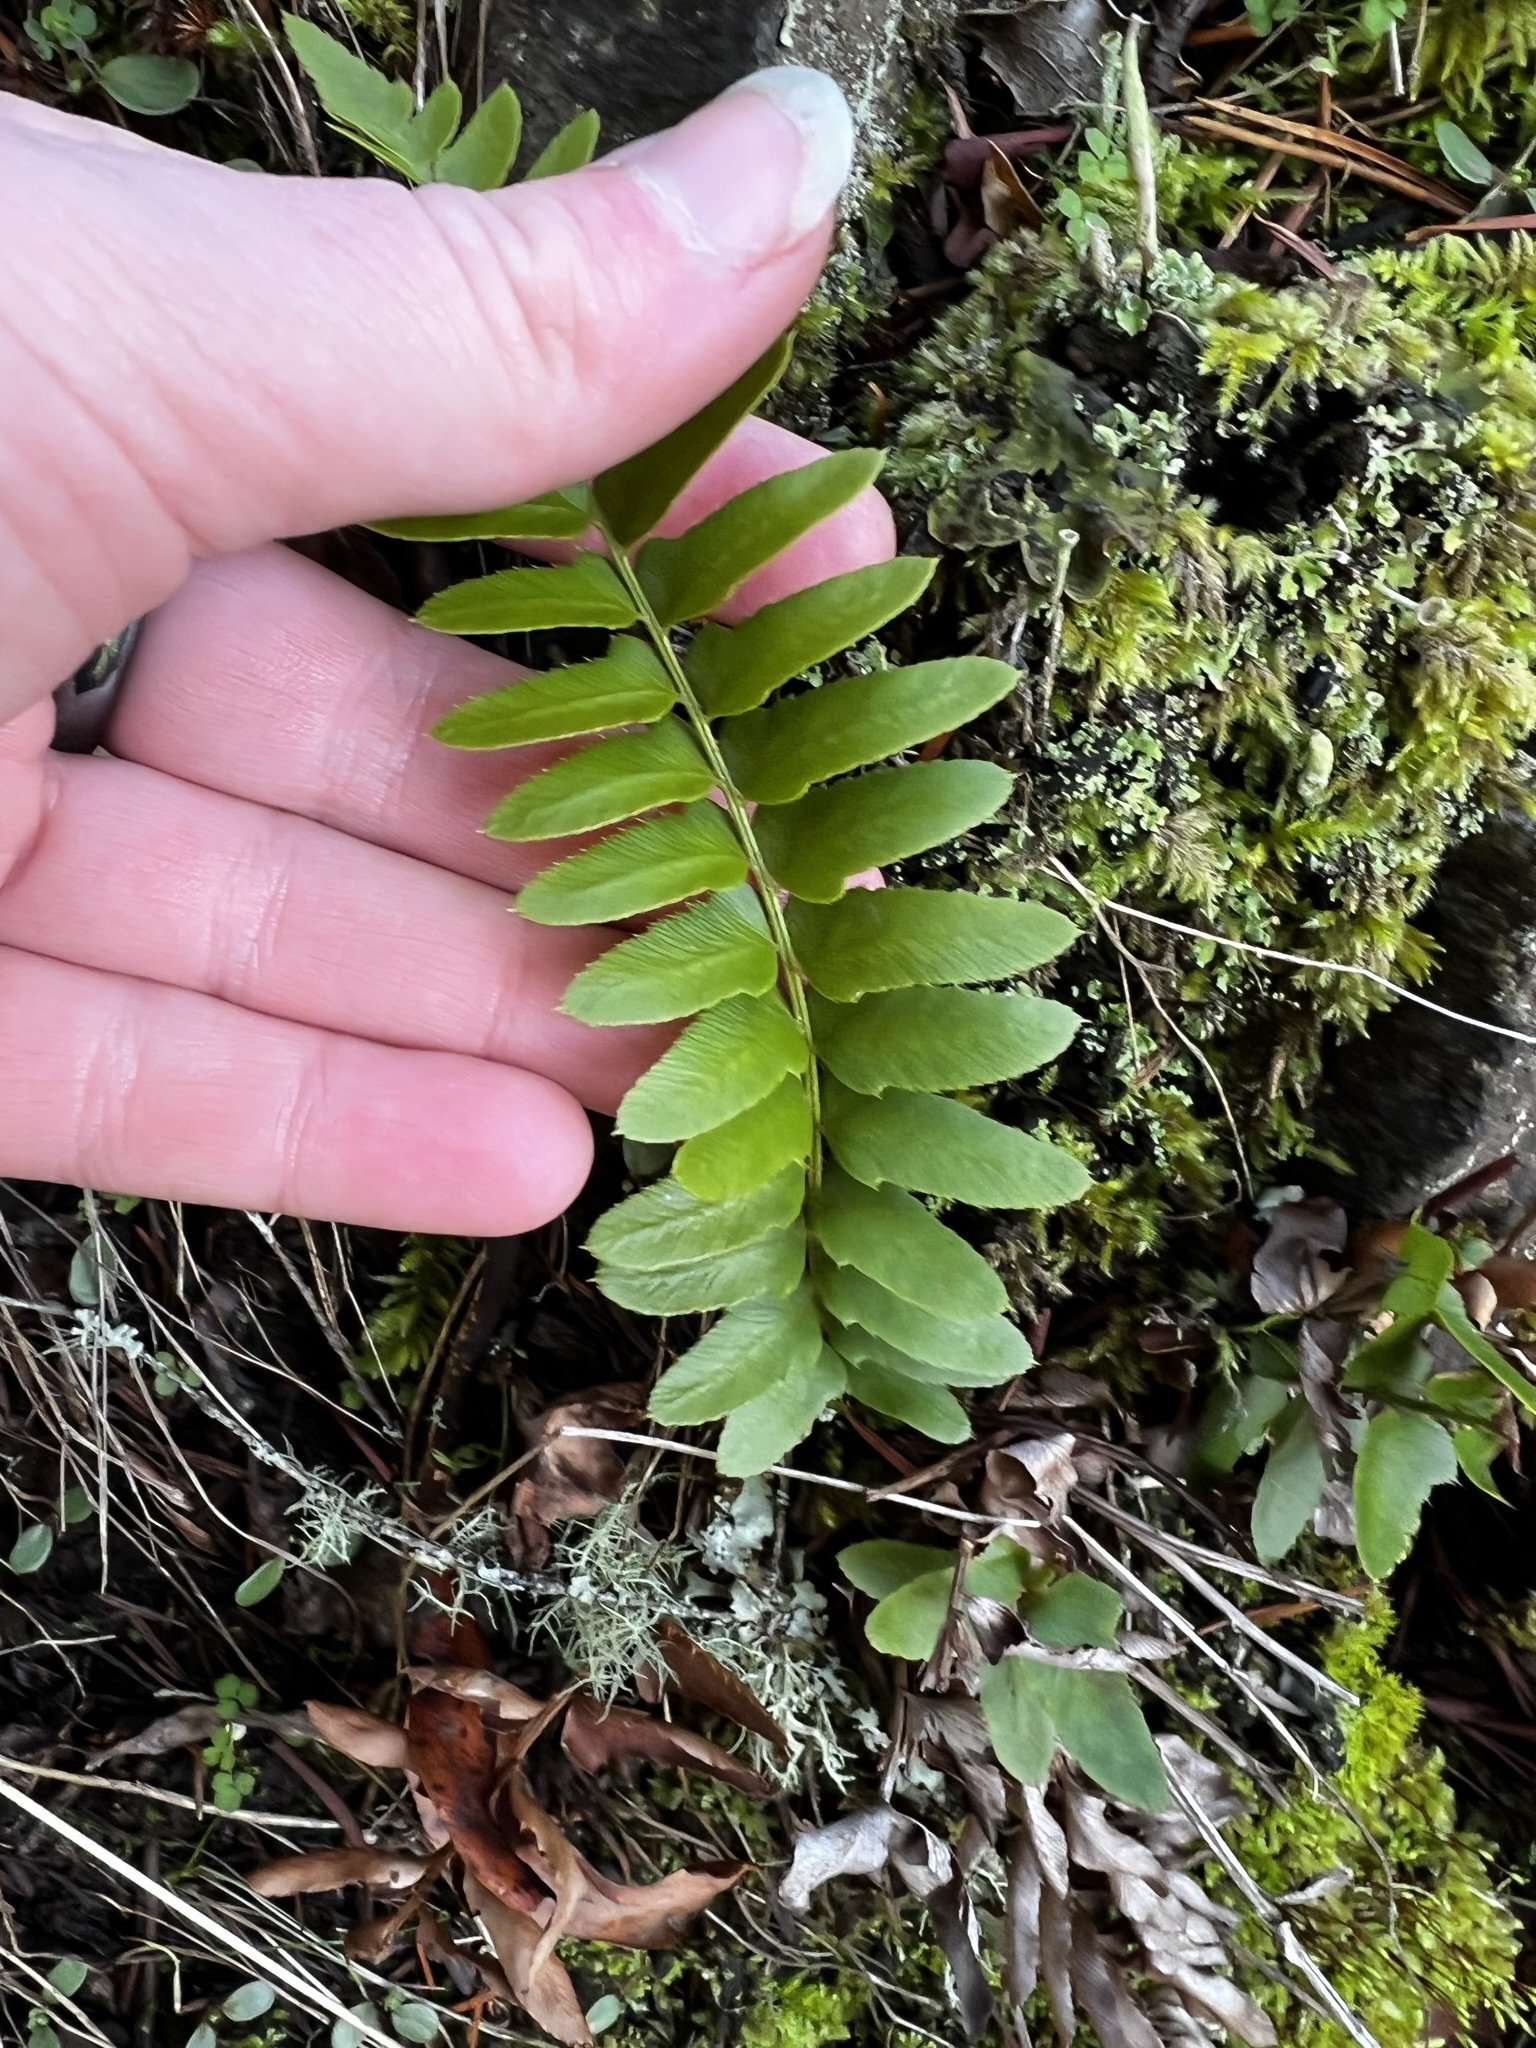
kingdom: Plantae
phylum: Tracheophyta
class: Polypodiopsida
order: Polypodiales
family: Dryopteridaceae
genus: Polystichum
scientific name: Polystichum imbricans
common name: Dwarf western sword fern
